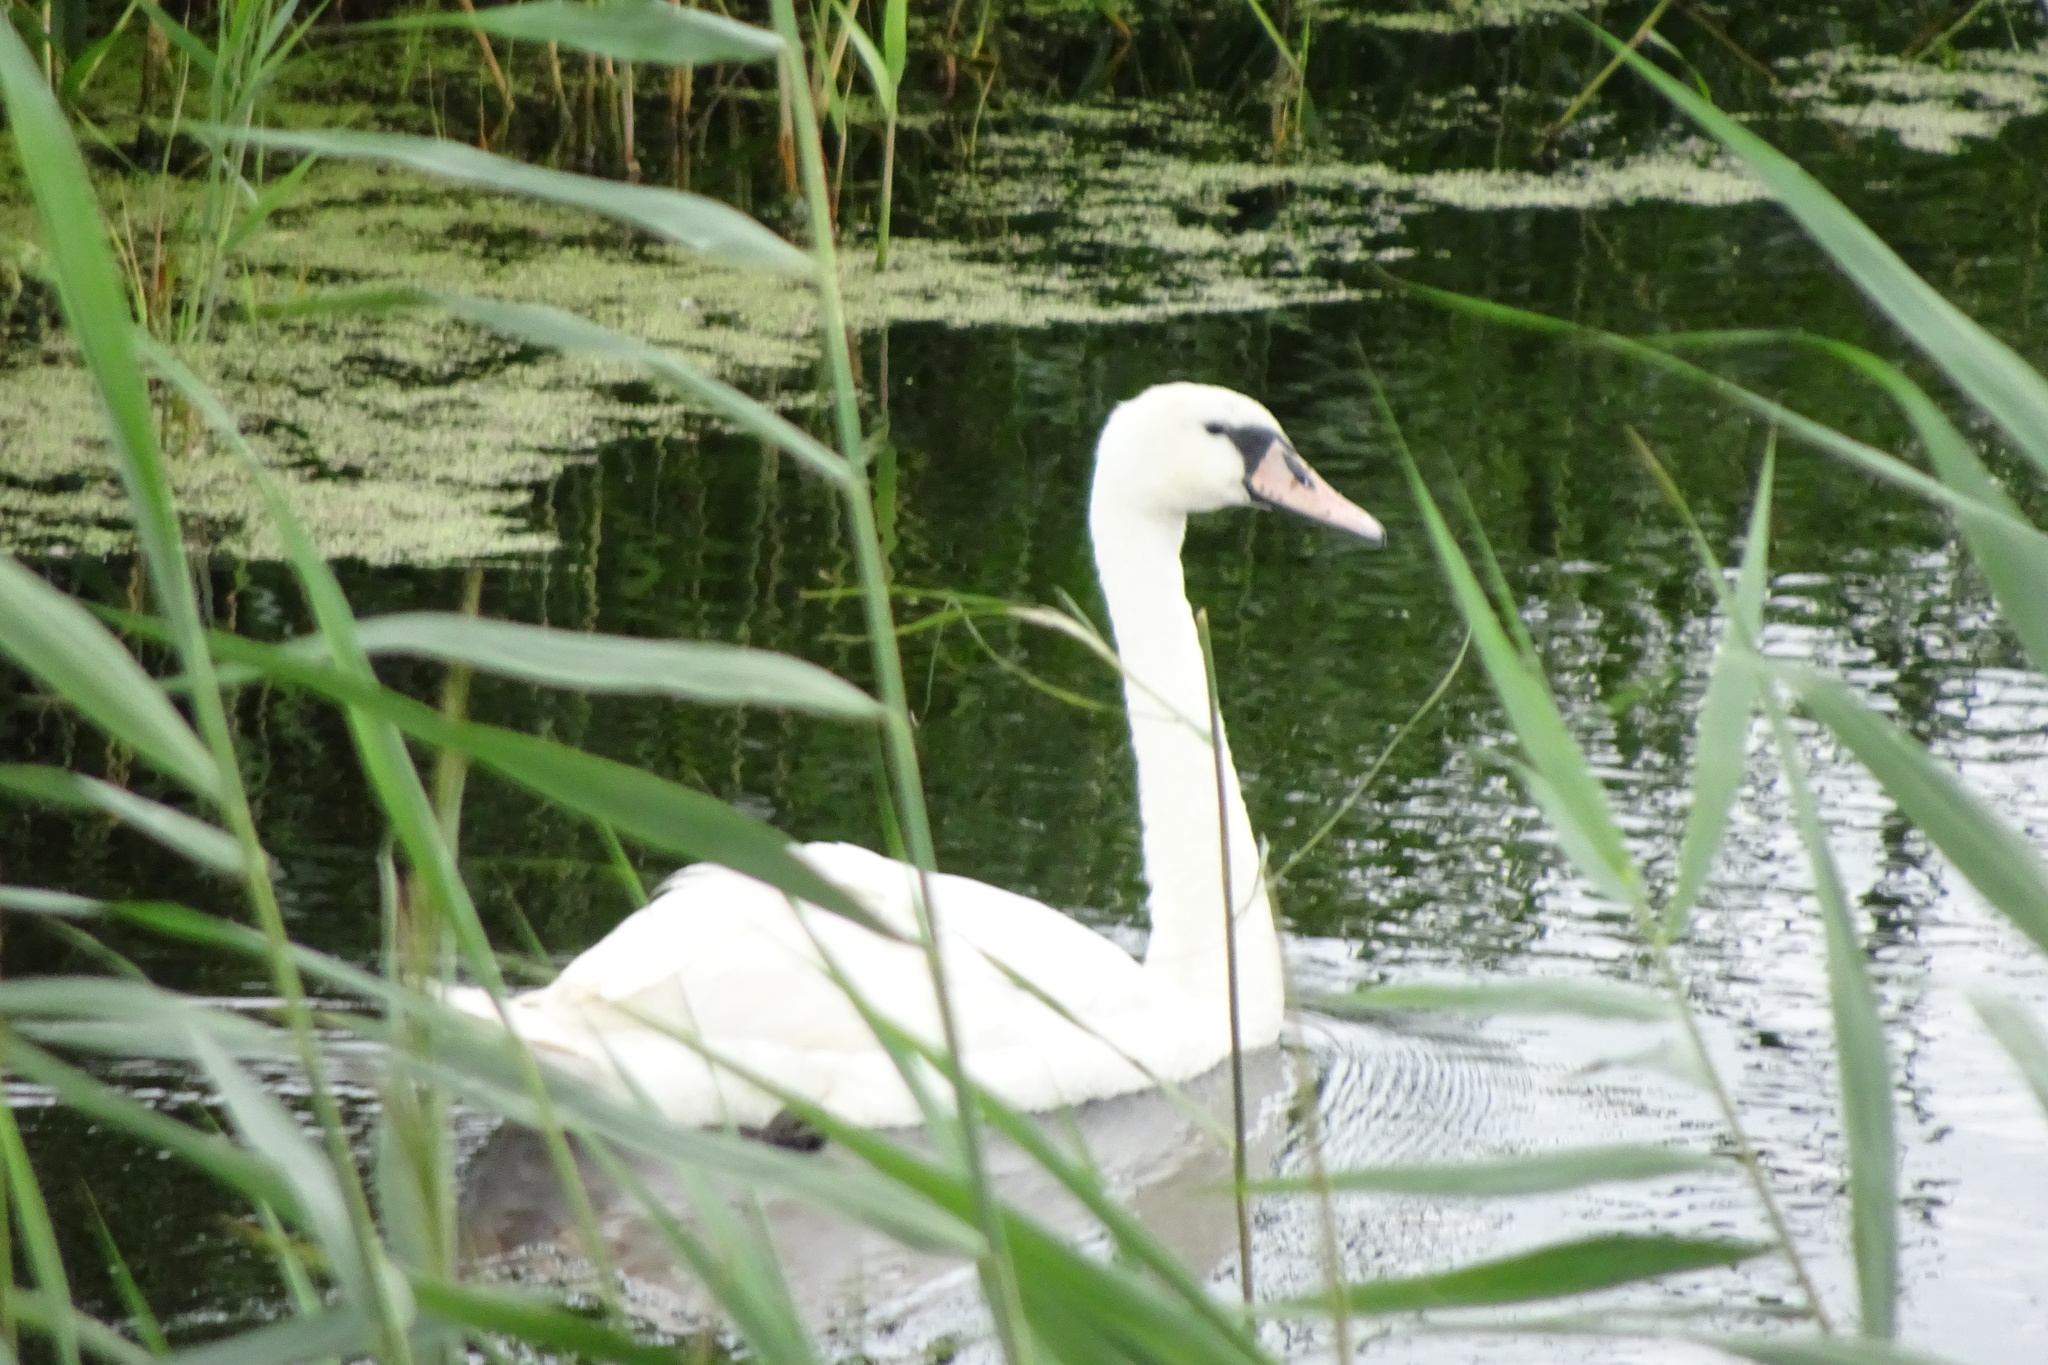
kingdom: Animalia
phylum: Chordata
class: Aves
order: Anseriformes
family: Anatidae
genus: Cygnus
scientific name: Cygnus olor
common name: Mute swan
